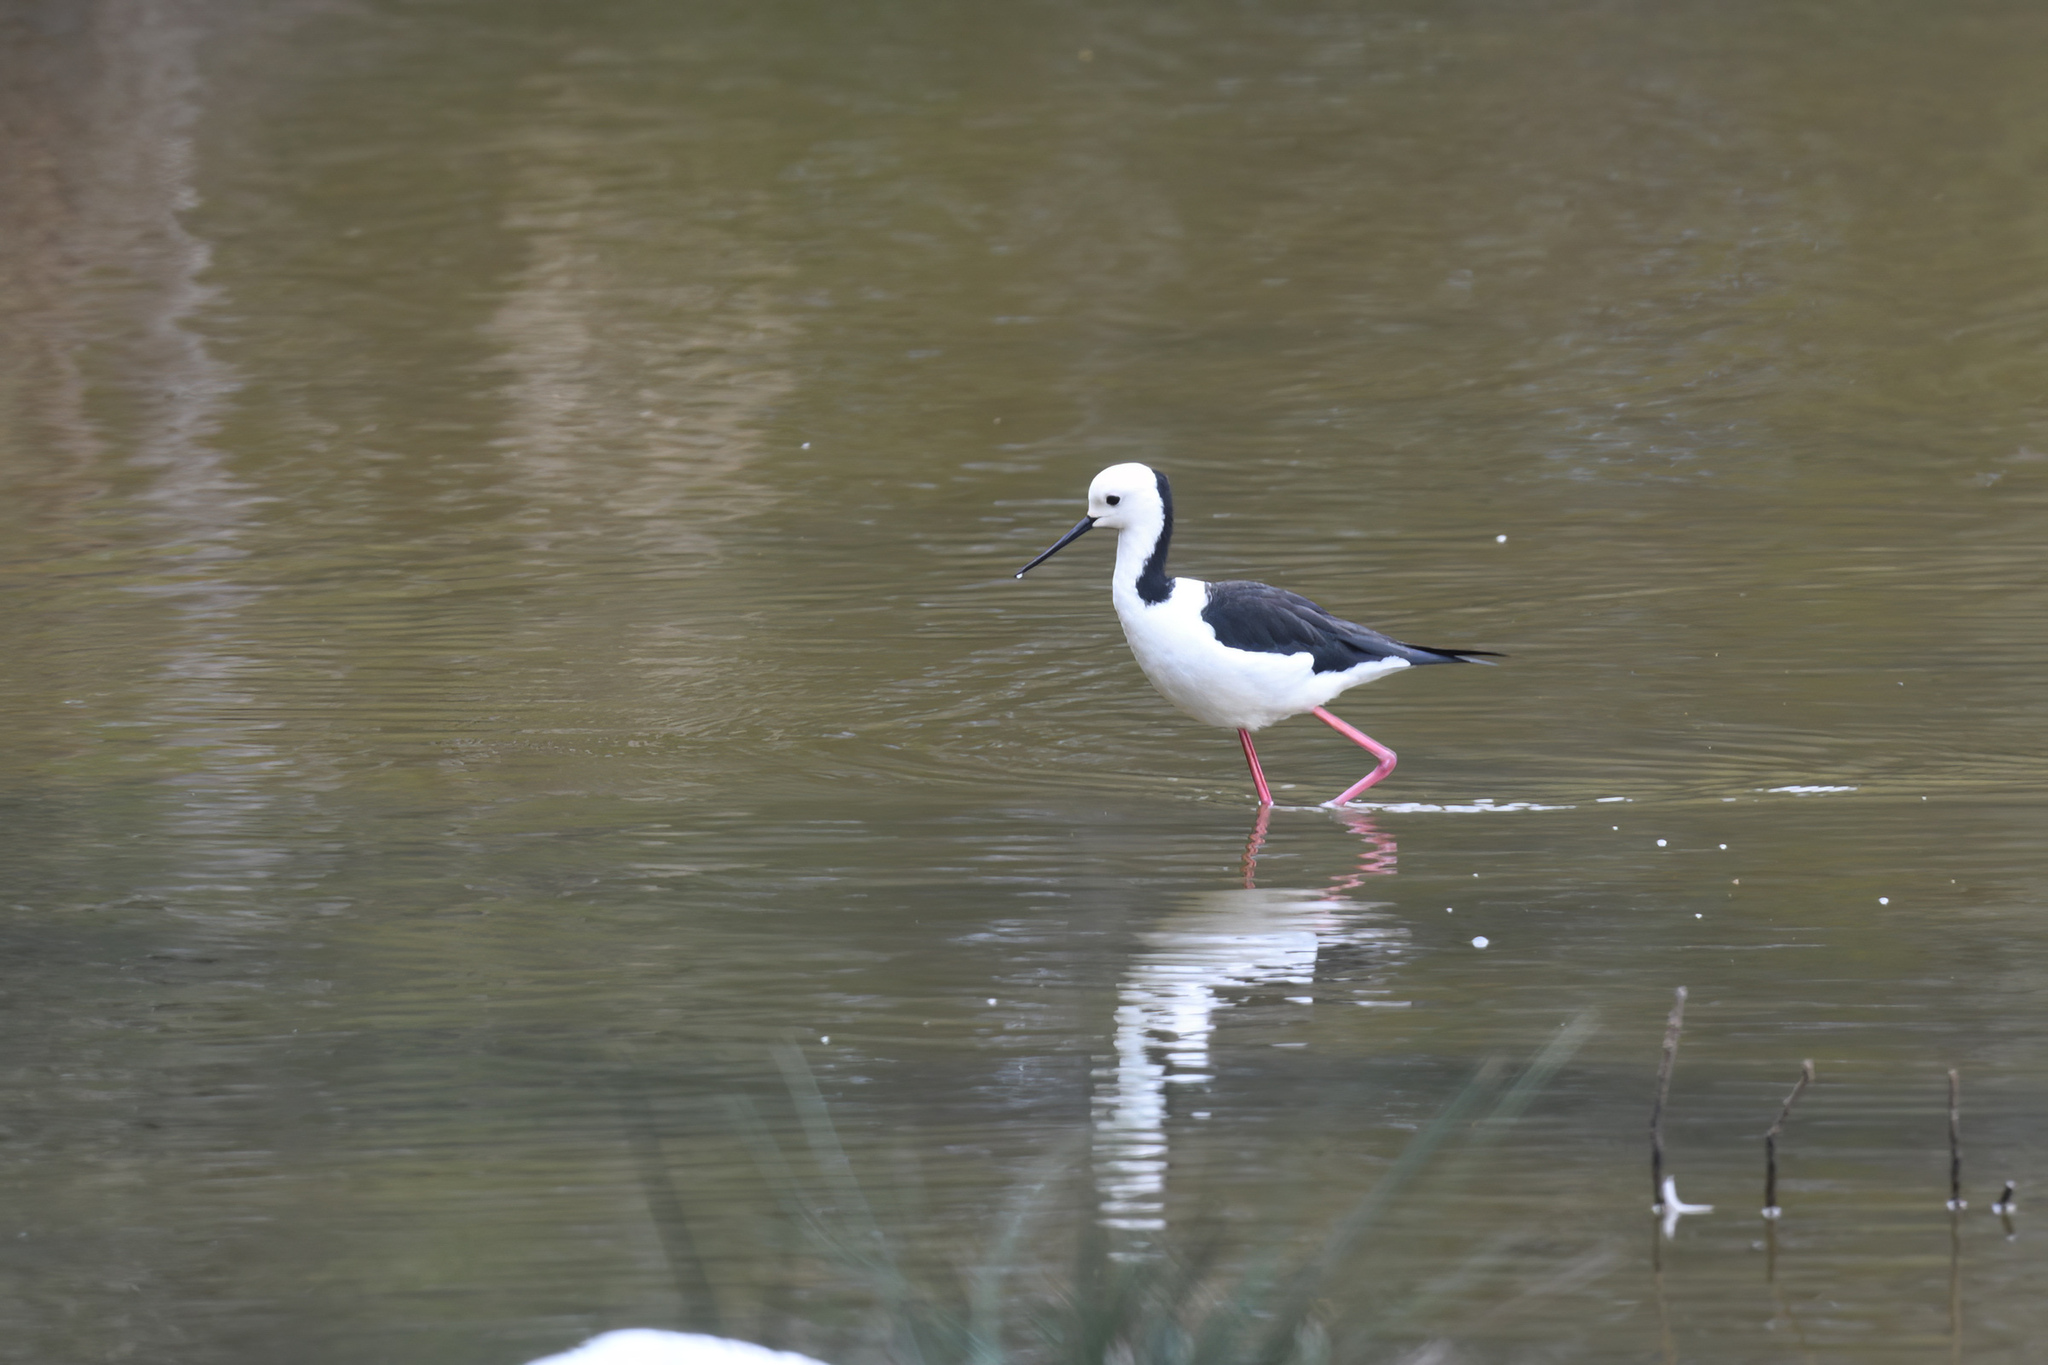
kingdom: Animalia
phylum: Chordata
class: Aves
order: Charadriiformes
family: Recurvirostridae
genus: Himantopus
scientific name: Himantopus leucocephalus
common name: White-headed stilt
